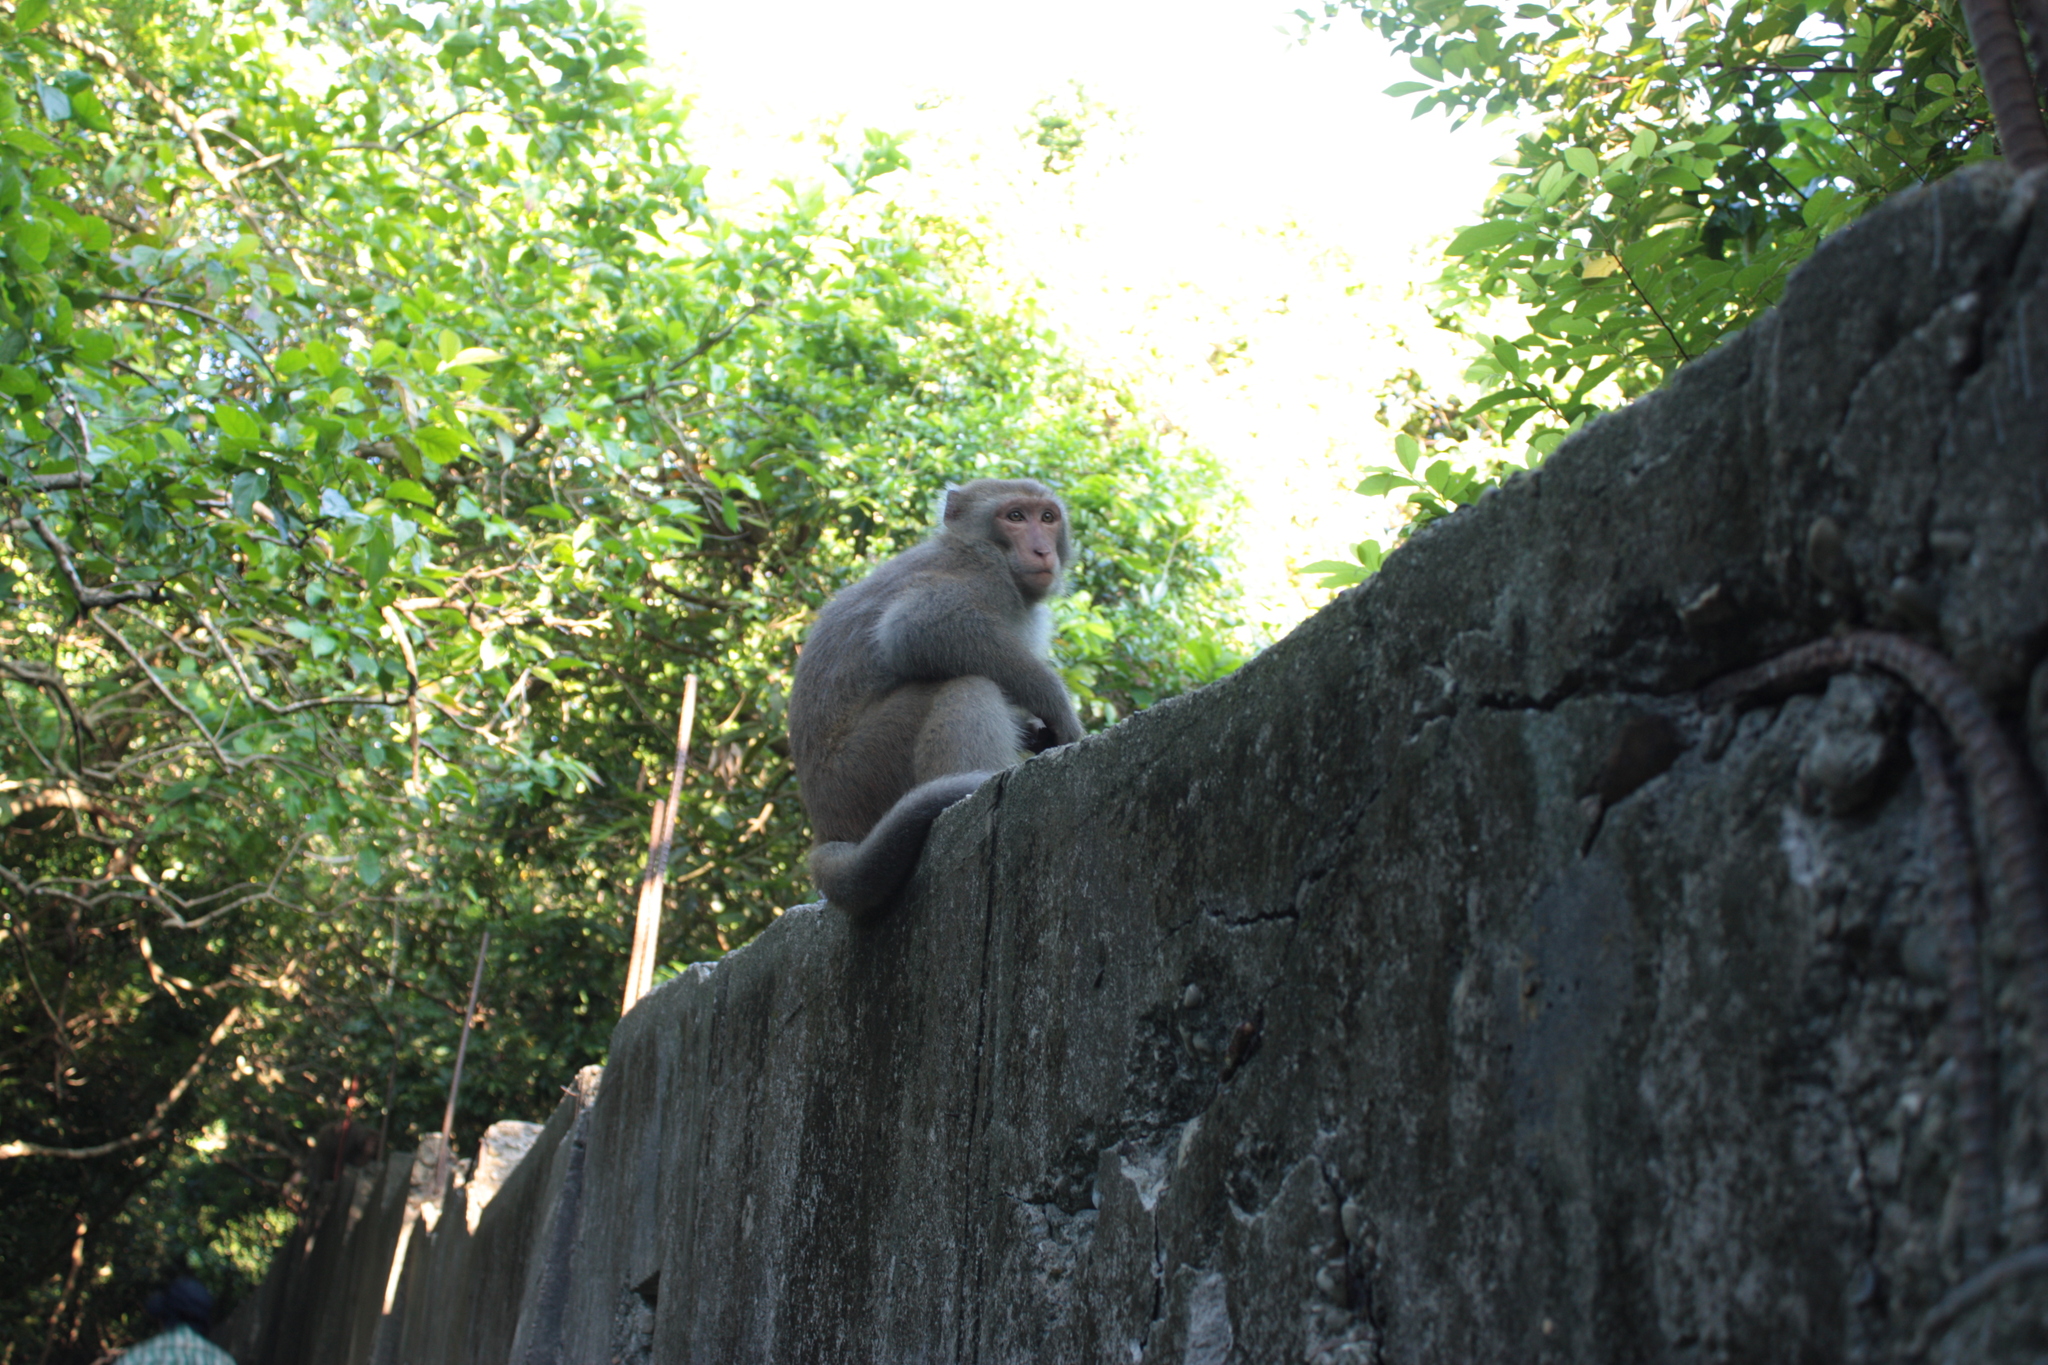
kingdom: Animalia
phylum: Chordata
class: Mammalia
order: Primates
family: Cercopithecidae
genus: Macaca
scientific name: Macaca cyclopis
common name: Formosan rock macaque
